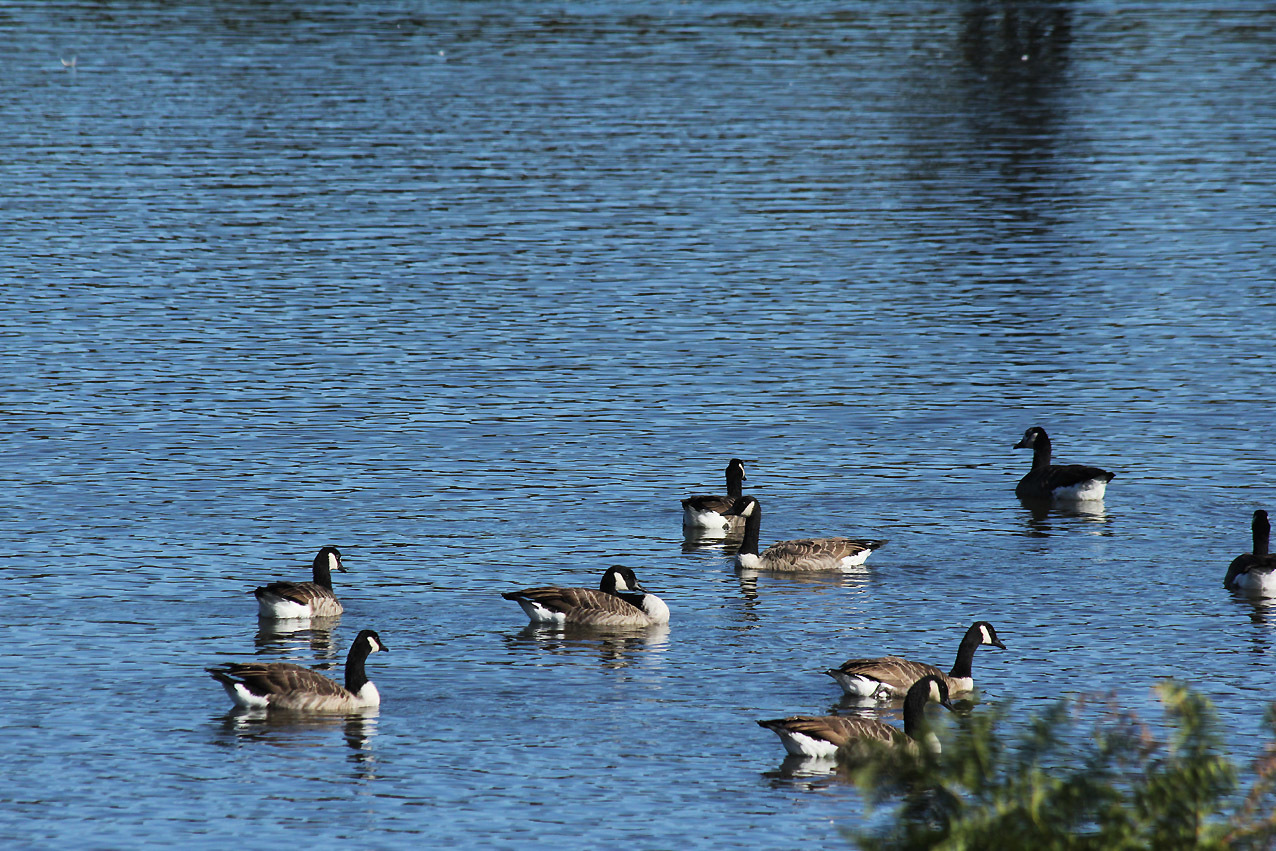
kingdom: Animalia
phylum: Chordata
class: Aves
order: Anseriformes
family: Anatidae
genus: Branta
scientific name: Branta canadensis
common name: Canada goose
